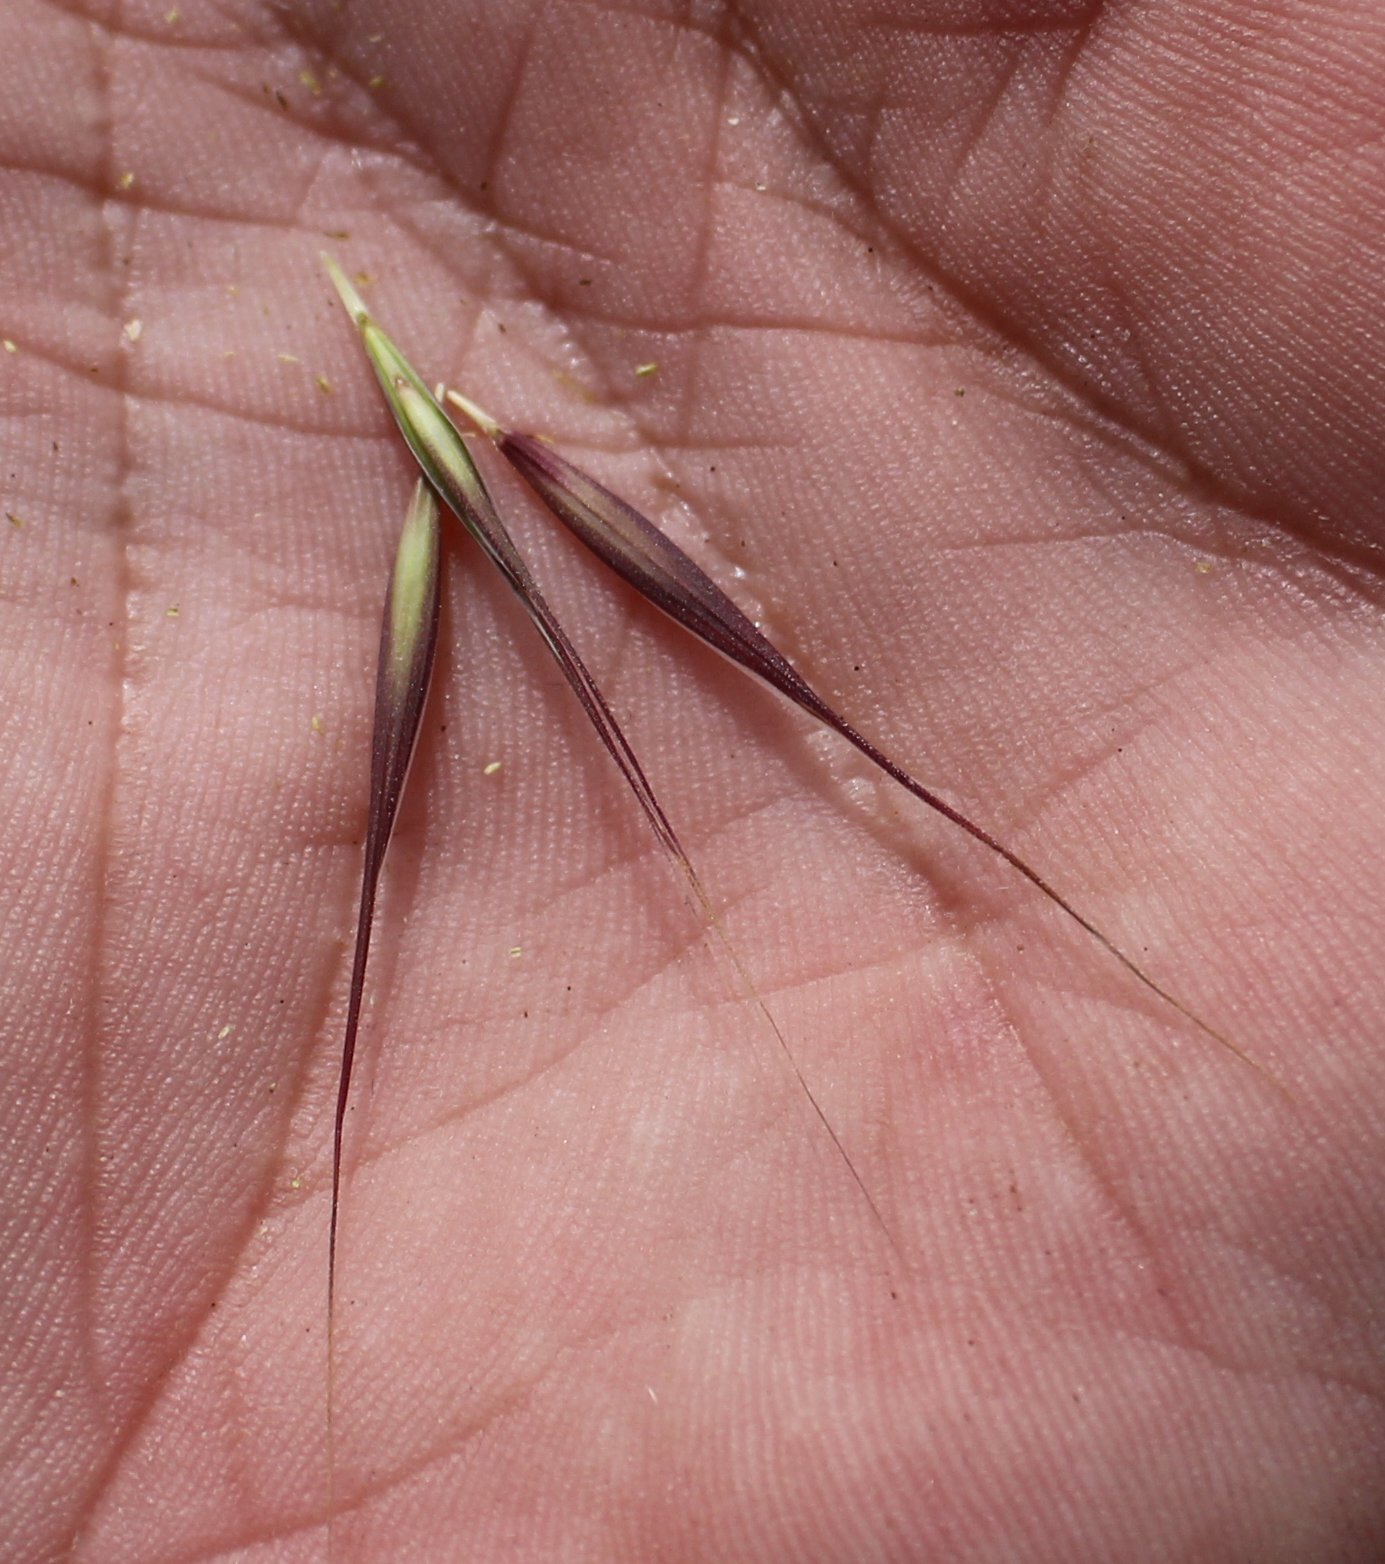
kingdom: Plantae
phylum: Tracheophyta
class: Liliopsida
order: Poales
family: Poaceae
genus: Bromus
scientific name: Bromus sterilis
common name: Poverty brome
